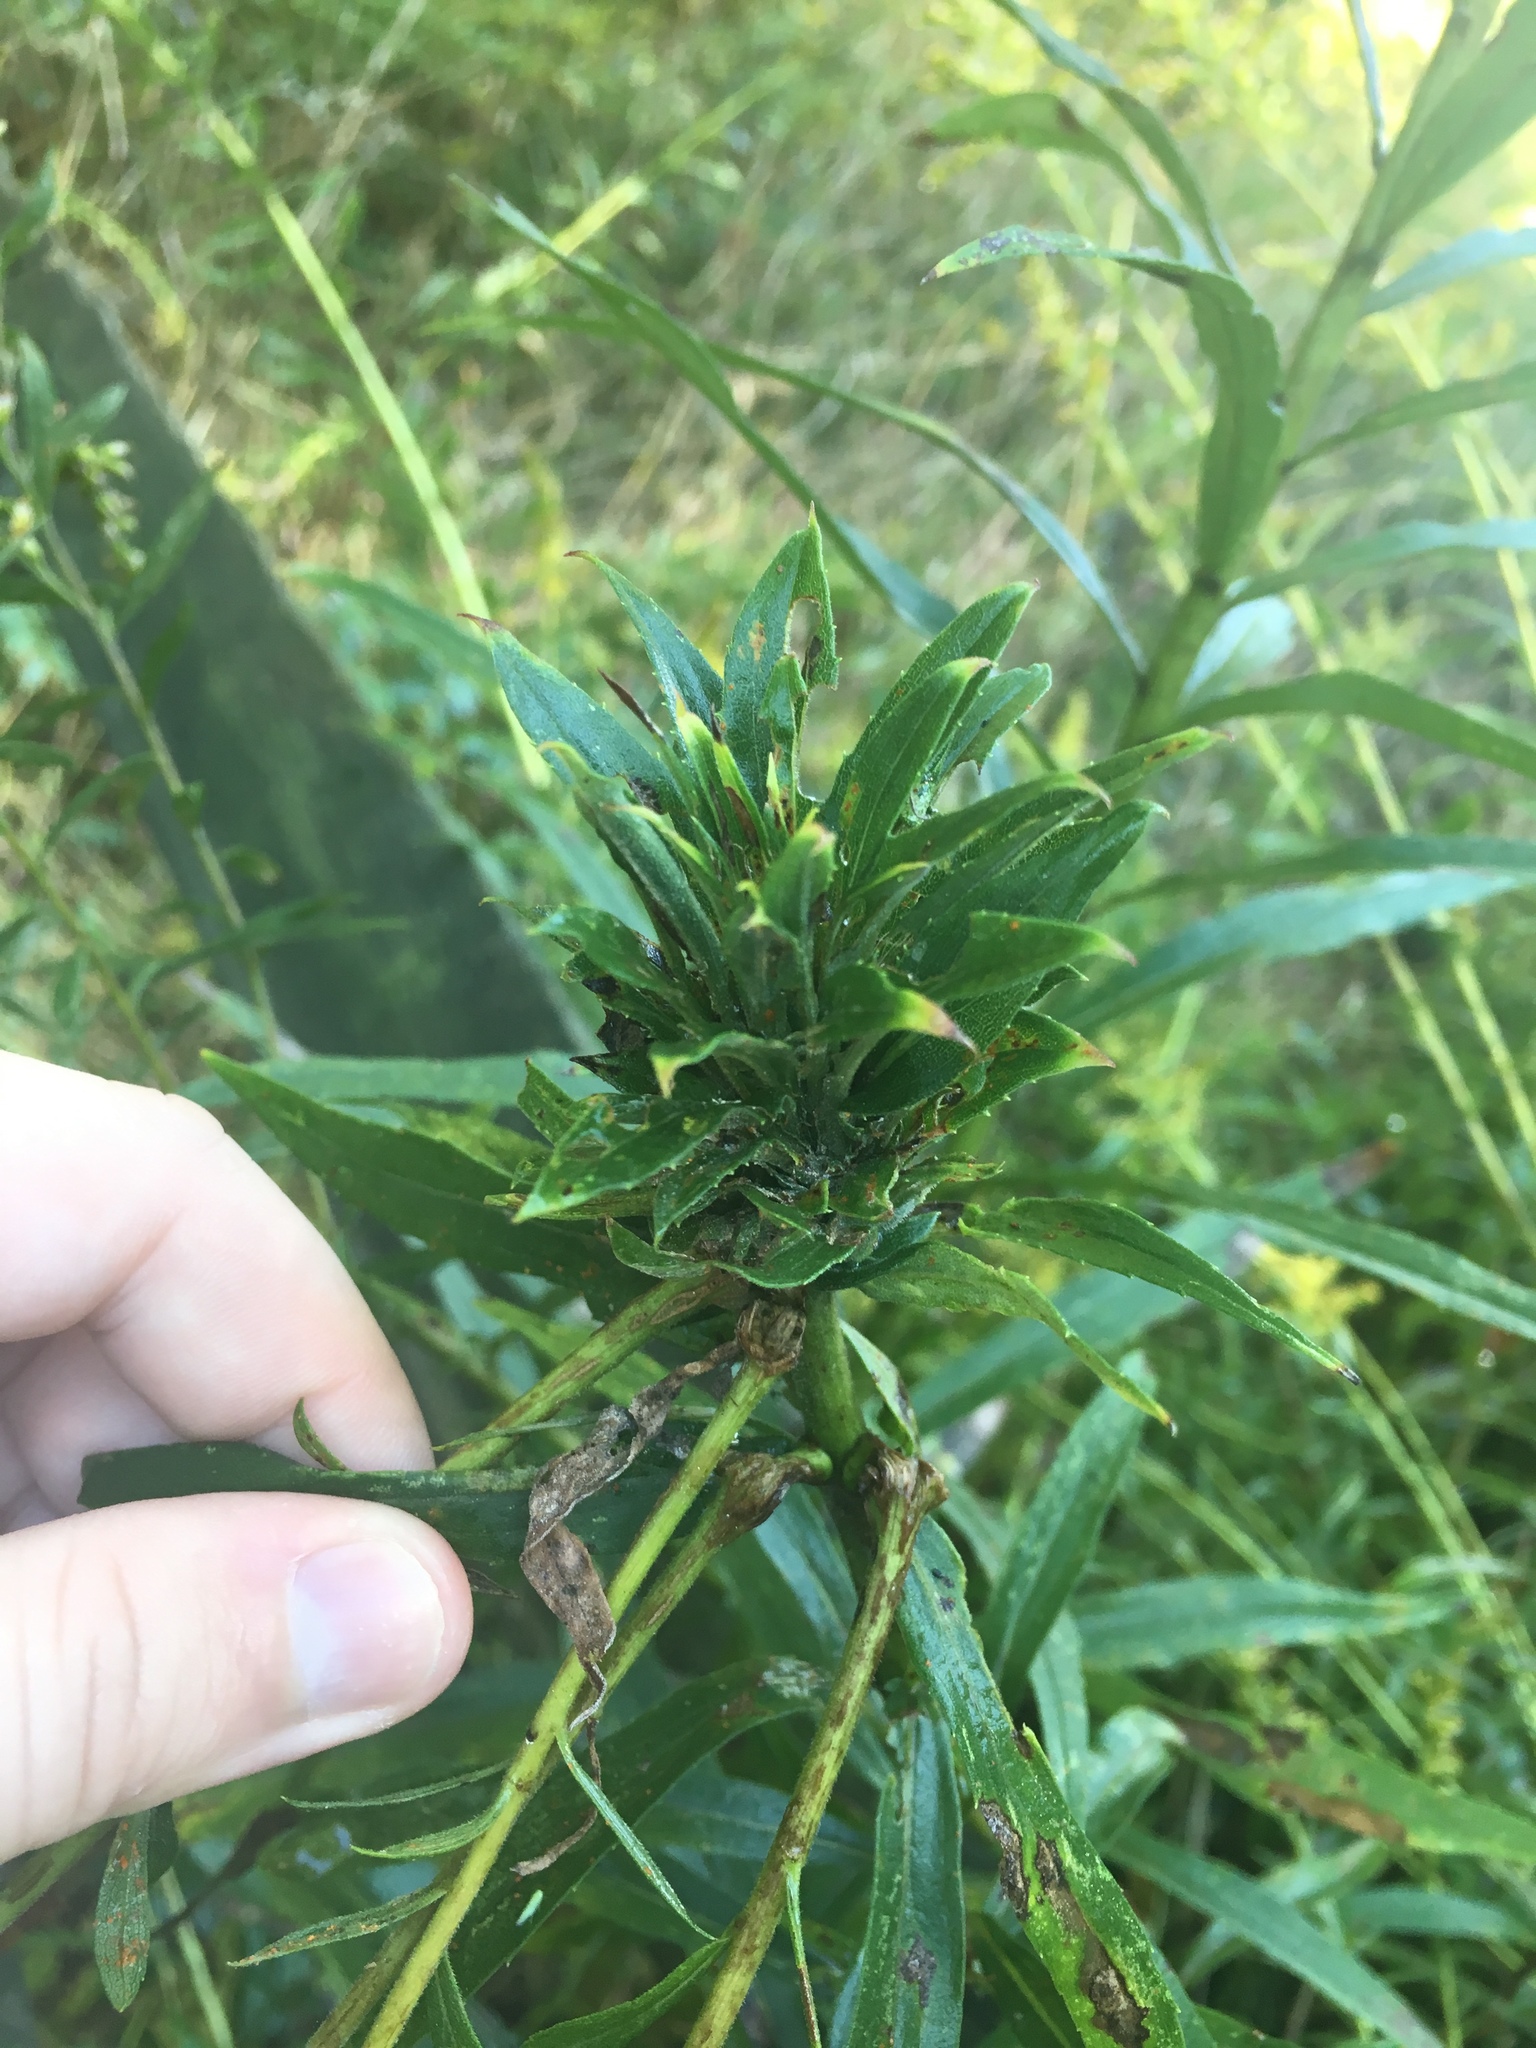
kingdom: Animalia
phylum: Arthropoda
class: Insecta
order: Diptera
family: Cecidomyiidae
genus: Rhopalomyia
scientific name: Rhopalomyia solidaginis
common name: Goldenrod bunch gall midge
